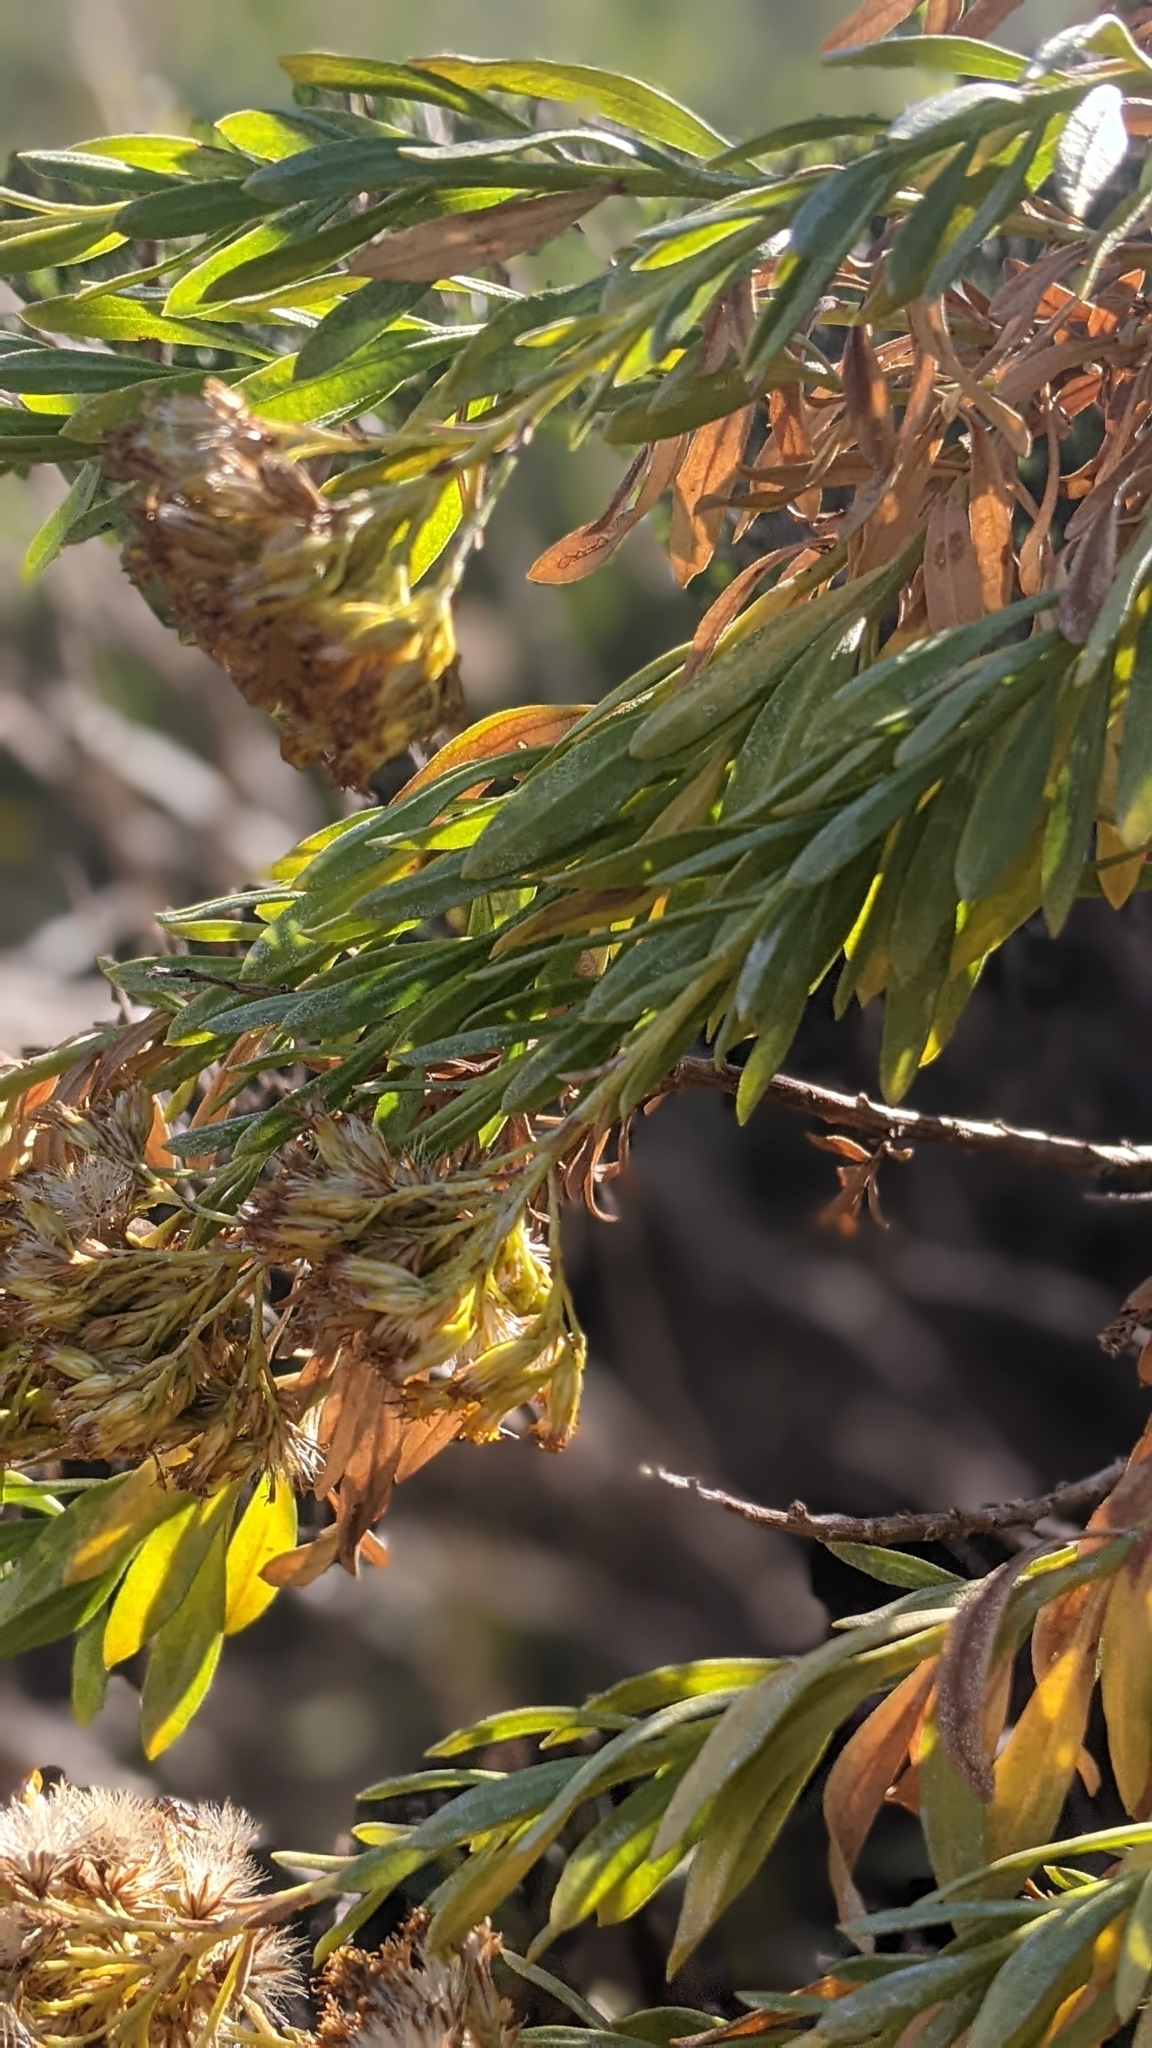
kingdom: Plantae
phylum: Tracheophyta
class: Magnoliopsida
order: Asterales
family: Asteraceae
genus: Ericameria
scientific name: Ericameria parishii
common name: Parish's goldenbush
